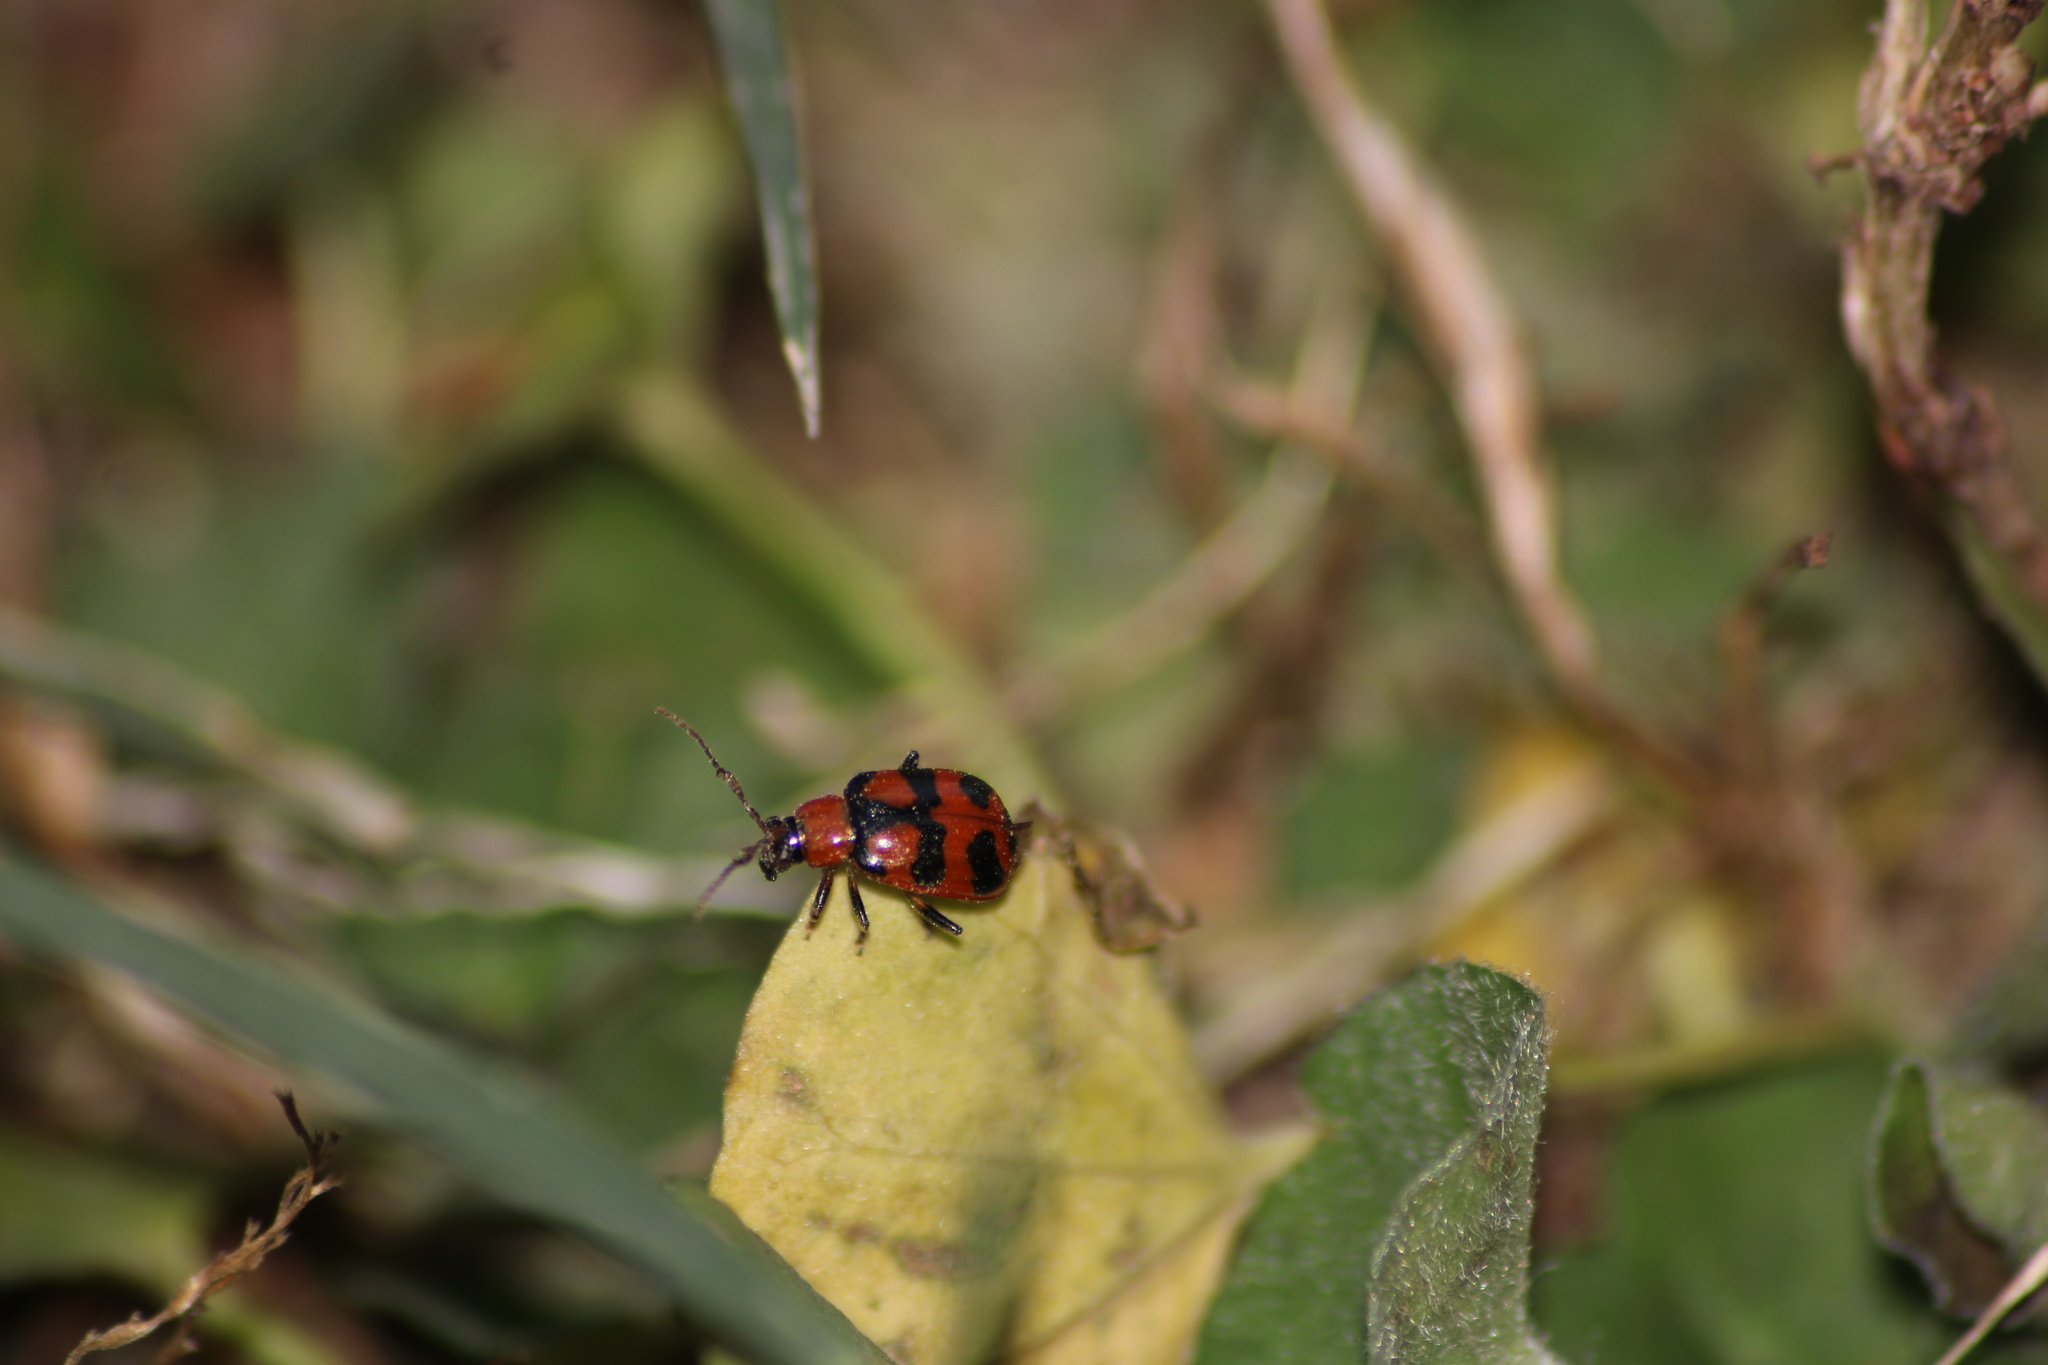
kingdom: Animalia
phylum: Arthropoda
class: Insecta
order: Coleoptera
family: Chrysomelidae
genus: Cerotoma
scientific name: Cerotoma atrofasciata
